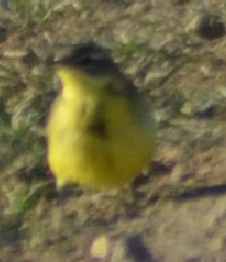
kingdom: Animalia
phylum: Chordata
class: Aves
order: Passeriformes
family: Motacillidae
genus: Motacilla
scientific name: Motacilla flava
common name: Western yellow wagtail
